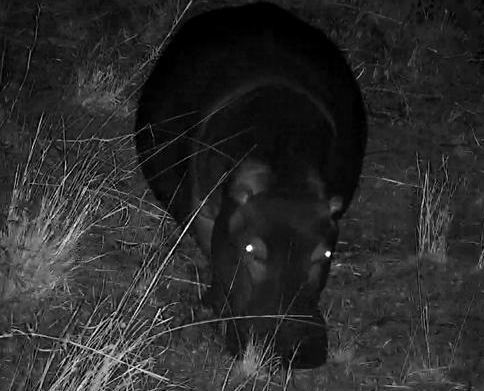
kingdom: Animalia
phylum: Chordata
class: Mammalia
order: Artiodactyla
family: Hippopotamidae
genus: Hippopotamus
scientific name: Hippopotamus amphibius
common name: Common hippopotamus
